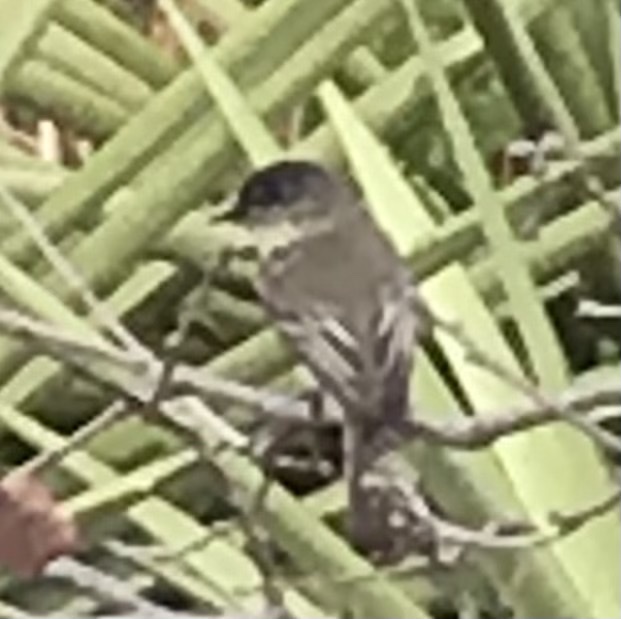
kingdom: Animalia
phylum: Chordata
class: Aves
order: Passeriformes
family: Tyrannidae
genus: Sayornis
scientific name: Sayornis phoebe
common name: Eastern phoebe
